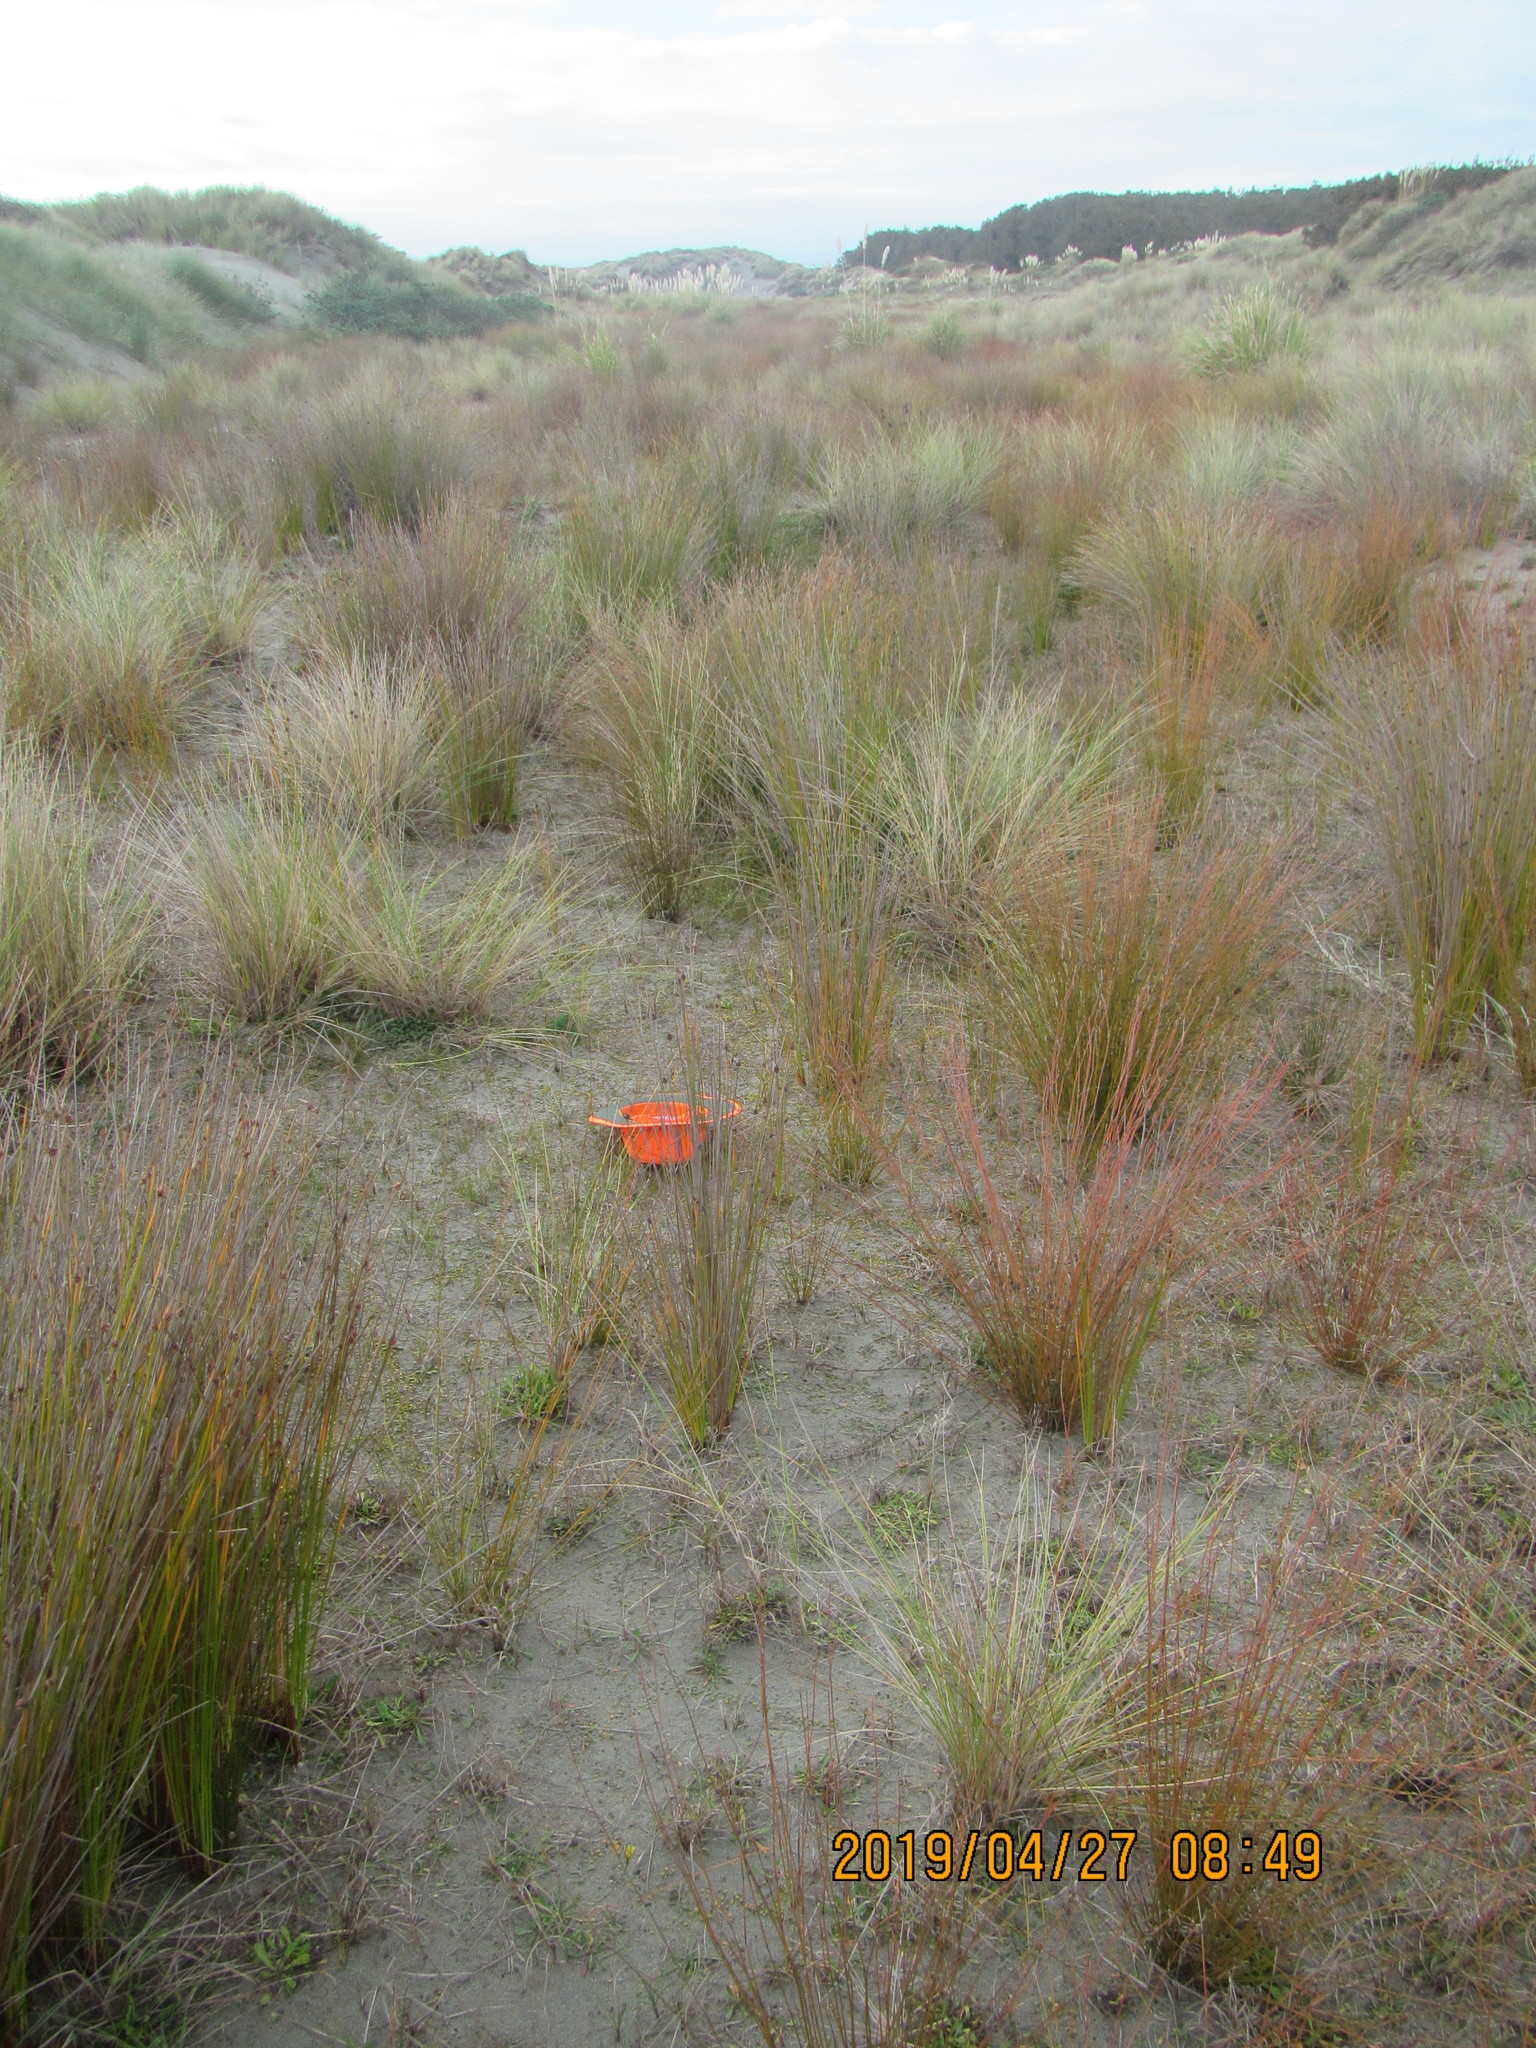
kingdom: Plantae
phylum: Tracheophyta
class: Magnoliopsida
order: Asterales
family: Goodeniaceae
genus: Goodenia
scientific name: Goodenia heenanii
